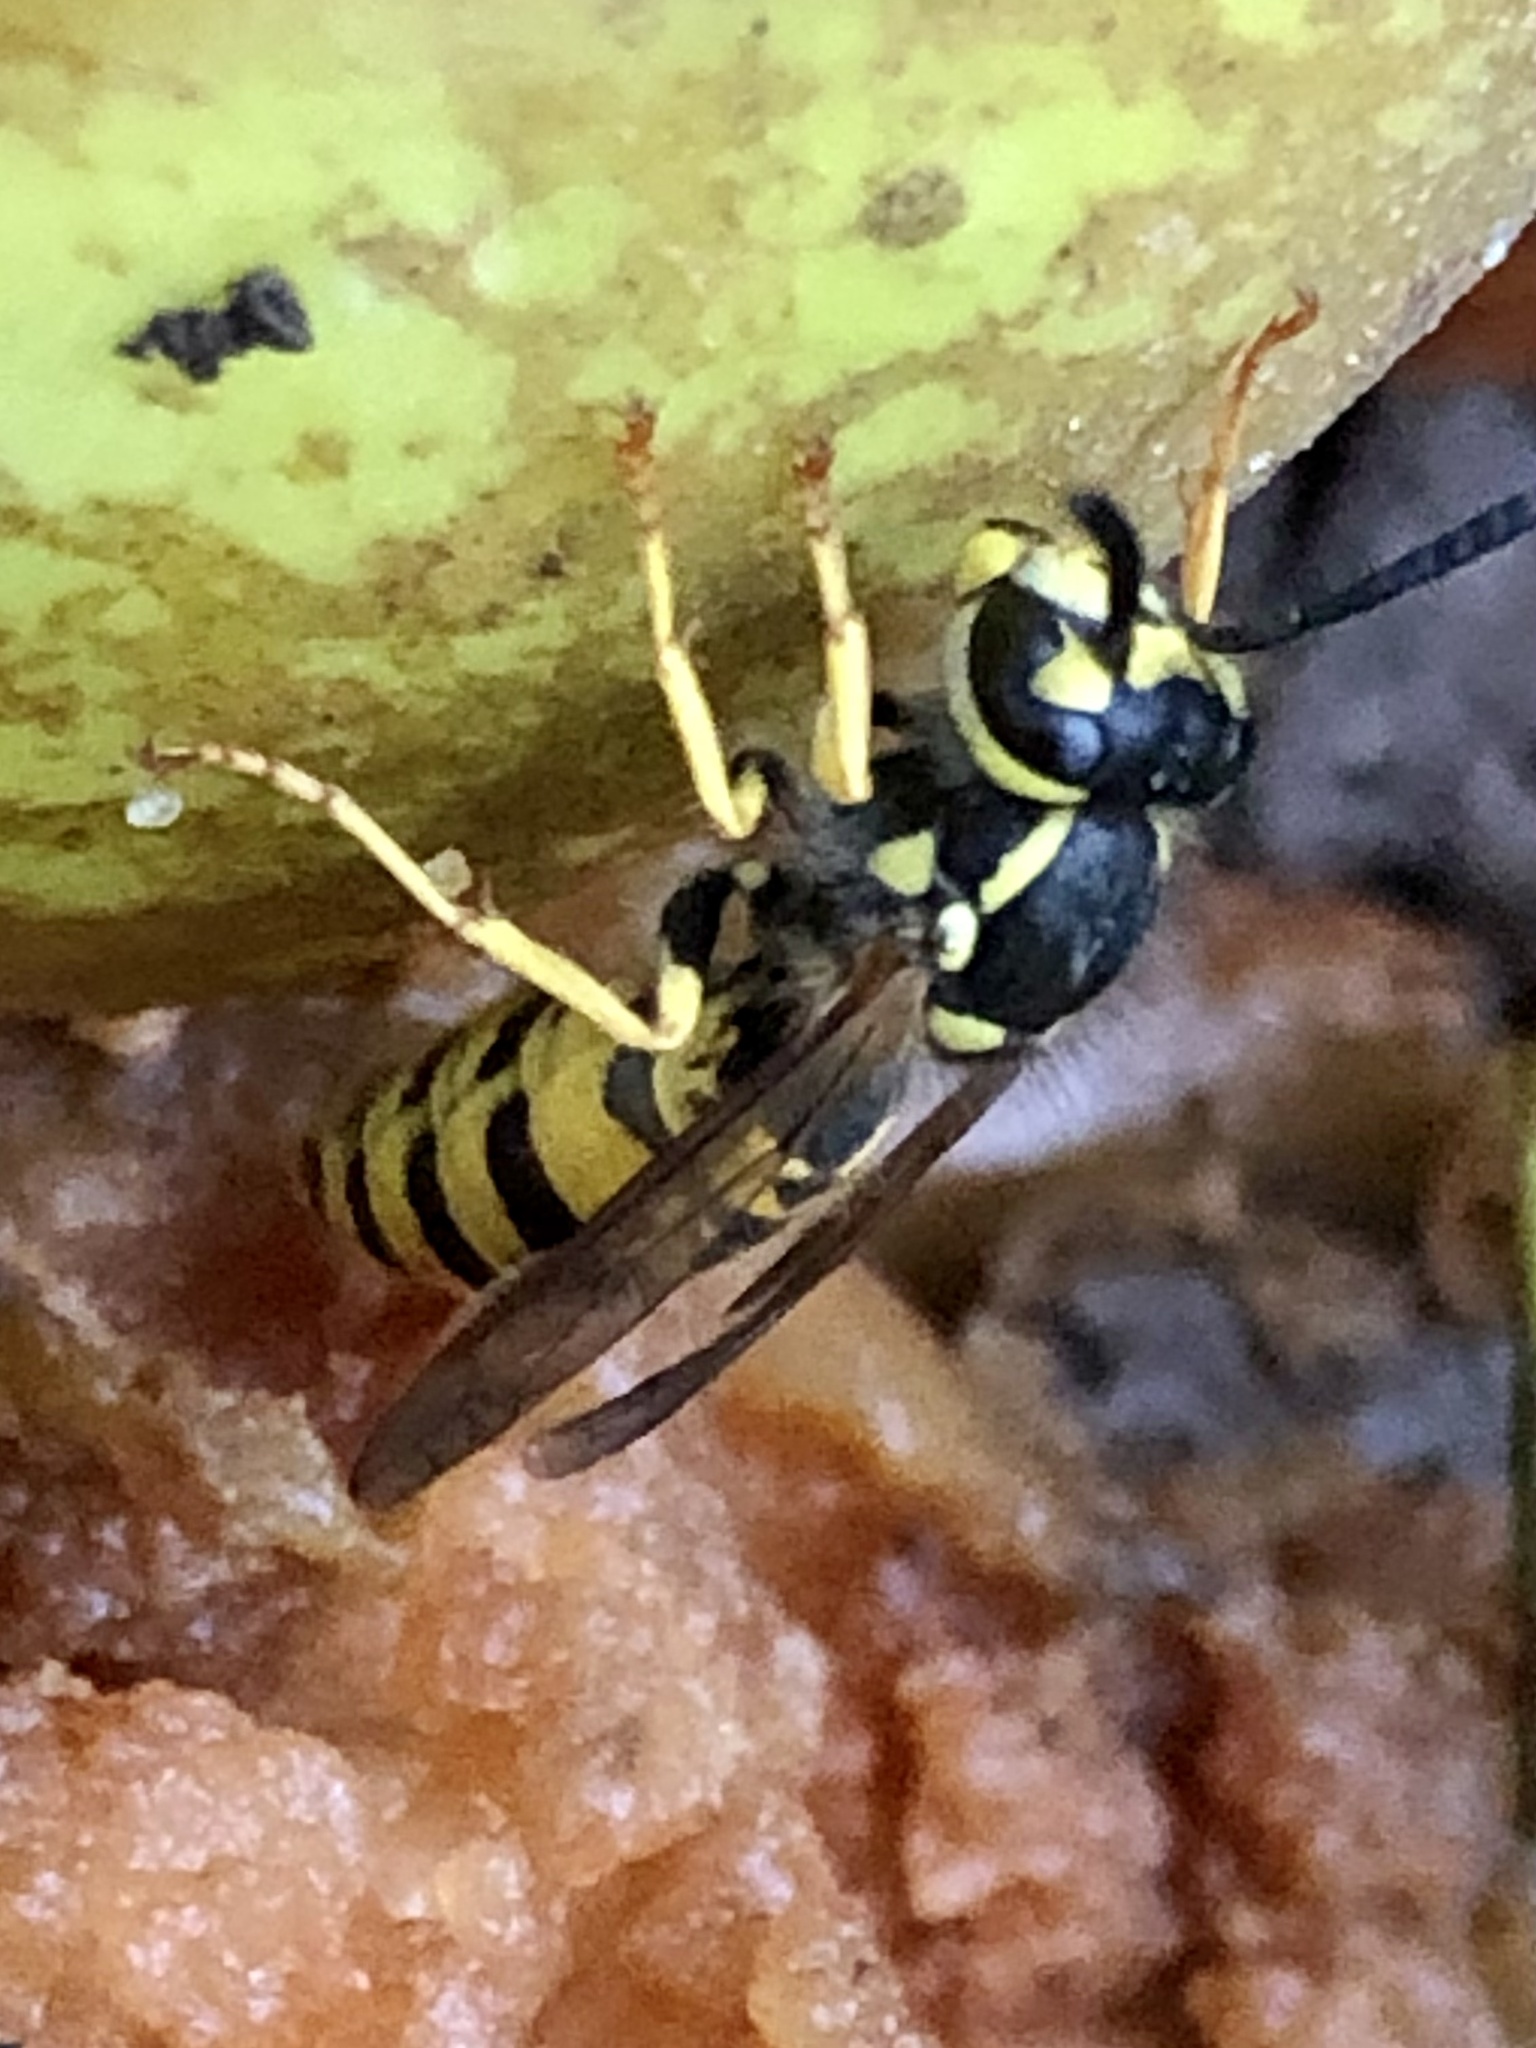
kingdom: Animalia
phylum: Arthropoda
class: Insecta
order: Hymenoptera
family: Vespidae
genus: Vespula
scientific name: Vespula germanica
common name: German wasp
